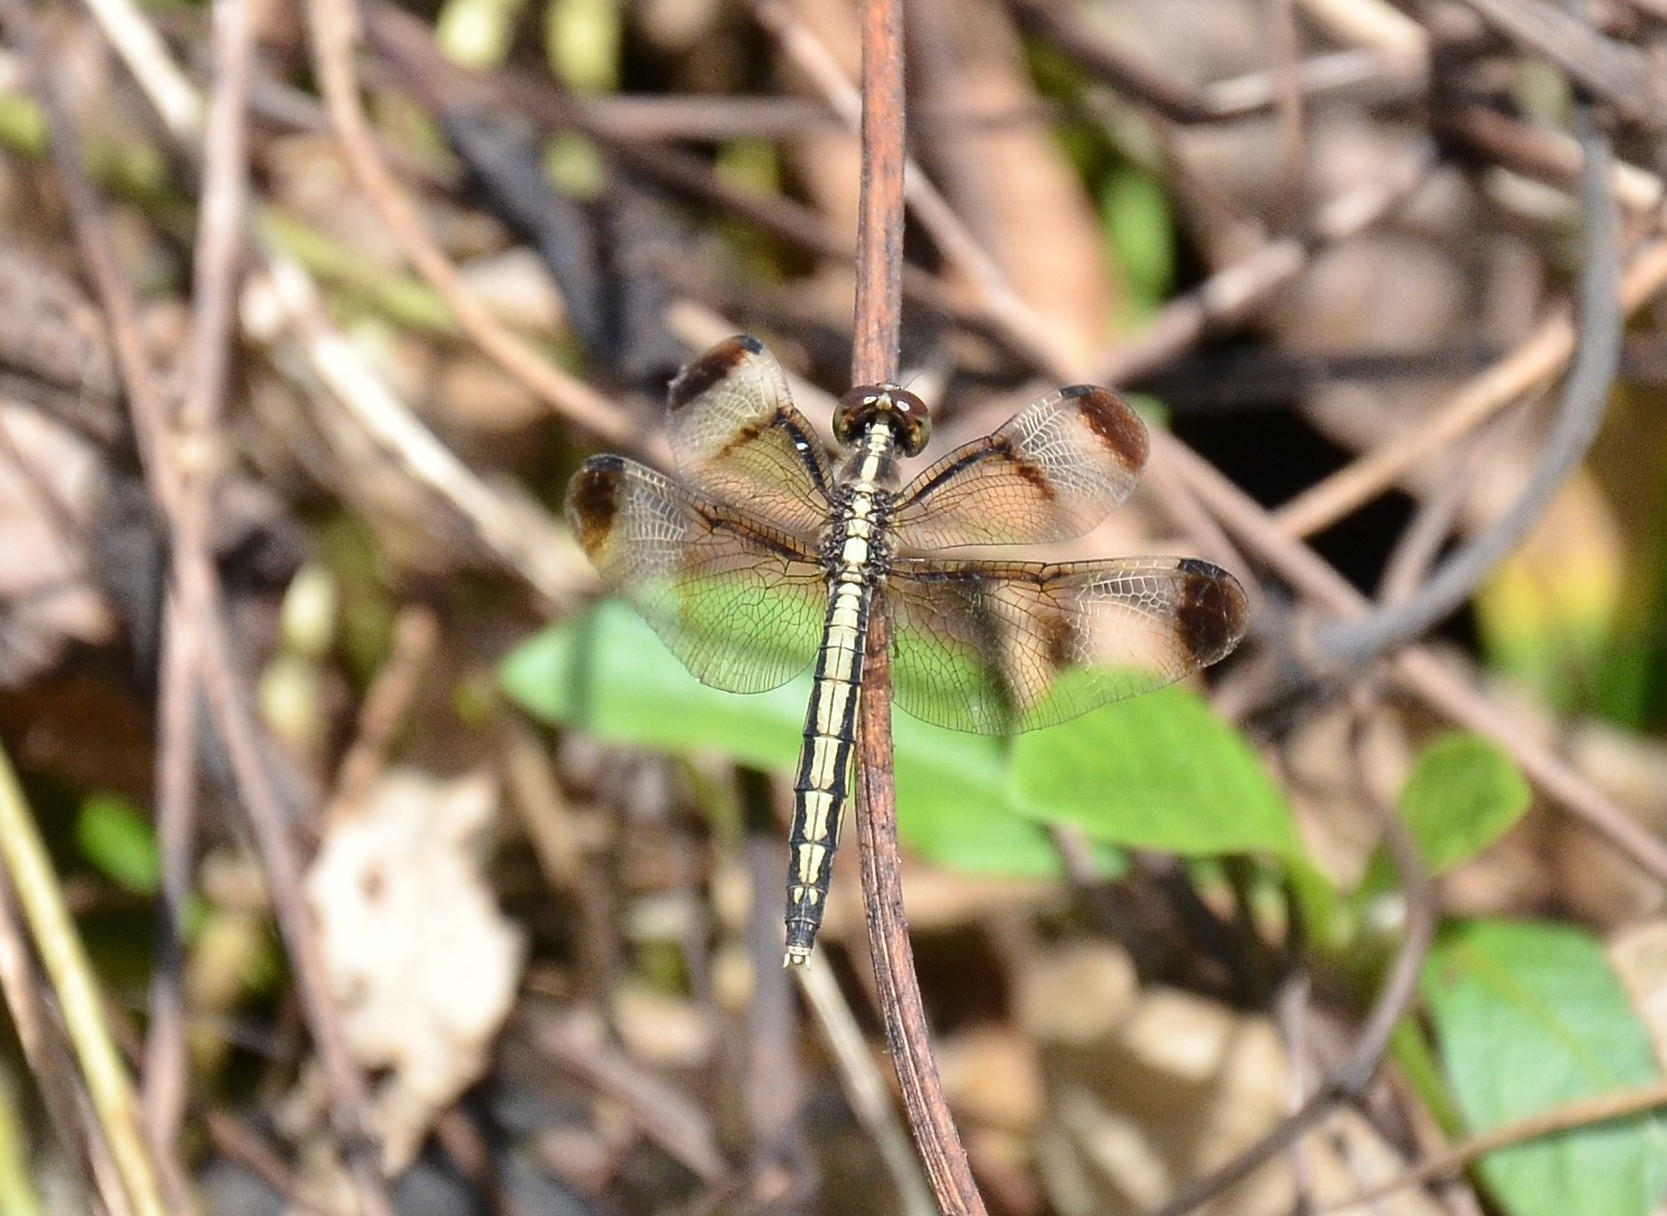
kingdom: Animalia
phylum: Arthropoda
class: Insecta
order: Odonata
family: Libellulidae
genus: Neurothemis
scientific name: Neurothemis tullia
